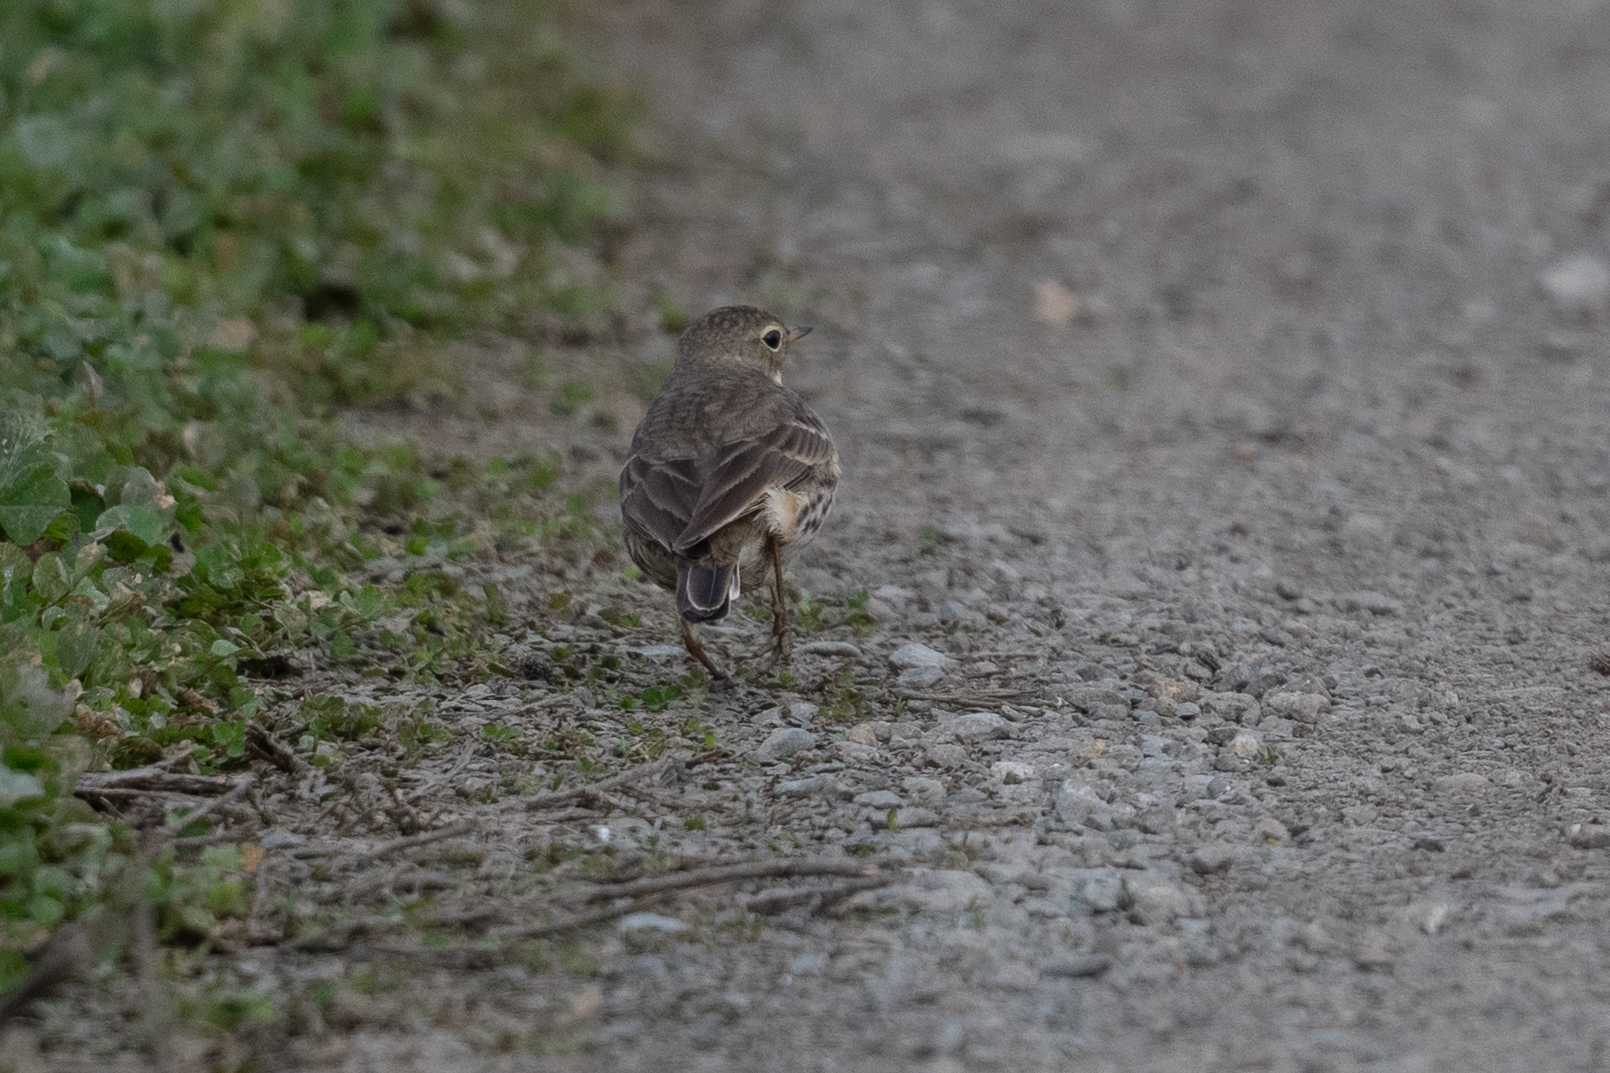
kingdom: Animalia
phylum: Chordata
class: Aves
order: Passeriformes
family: Motacillidae
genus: Anthus
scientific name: Anthus rubescens
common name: Buff-bellied pipit
